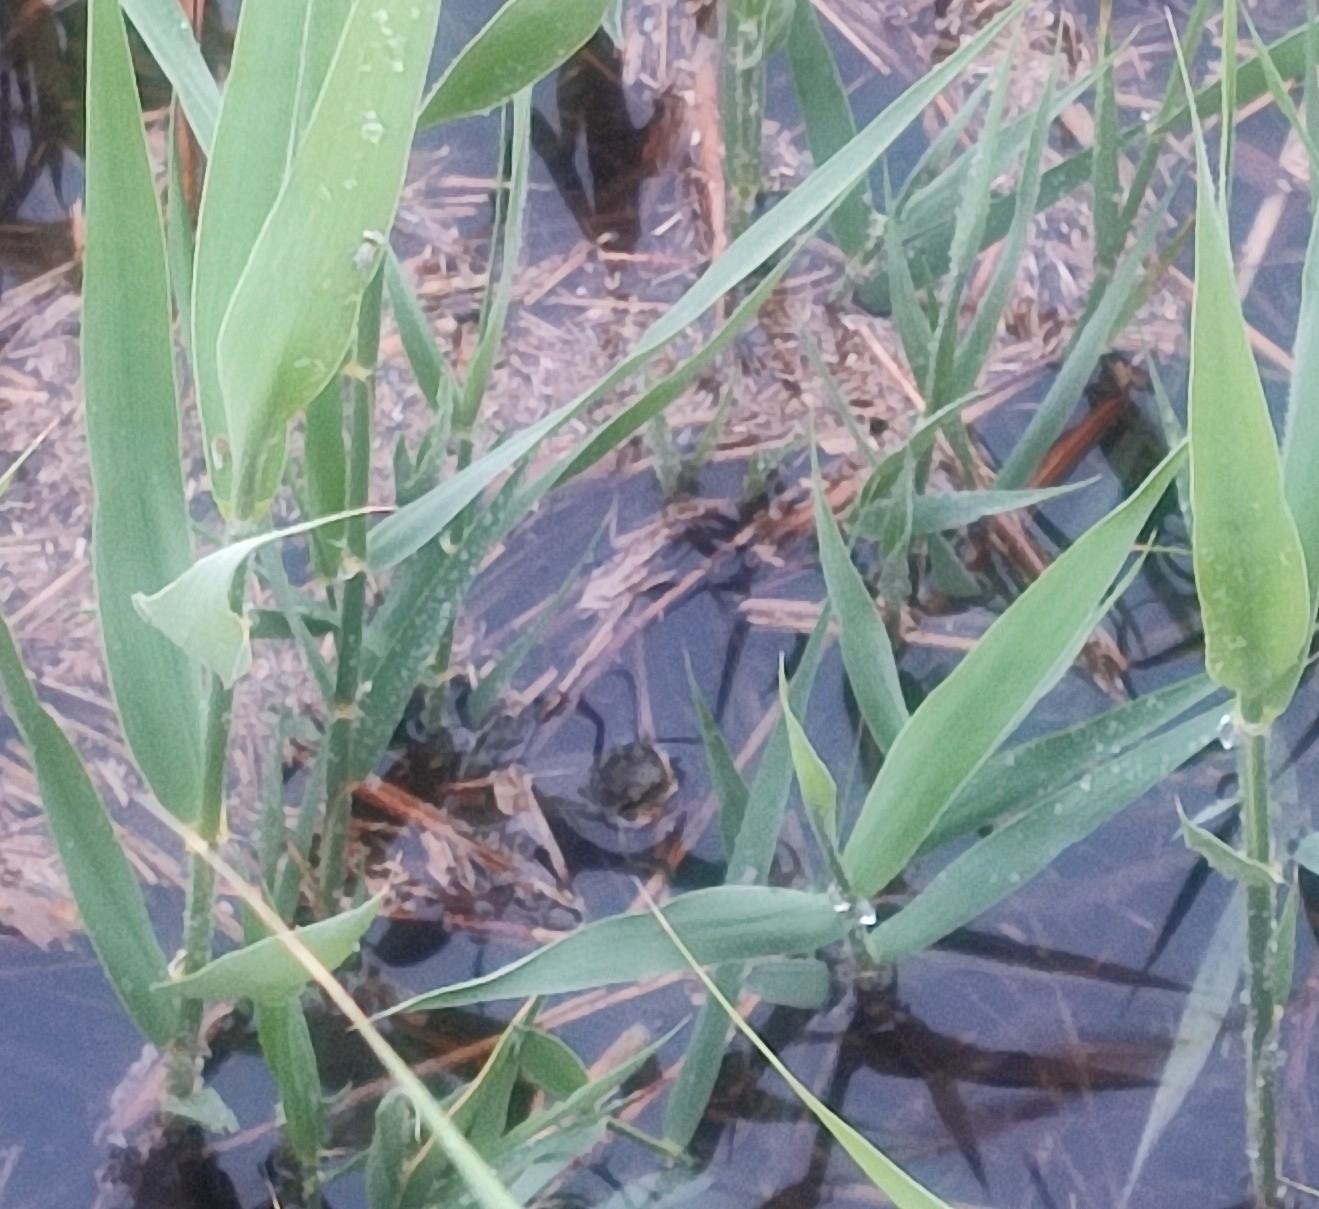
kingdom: Animalia
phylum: Chordata
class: Amphibia
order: Anura
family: Hylidae
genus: Hyla
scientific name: Hyla meridionalis
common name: Stripeless tree frog
